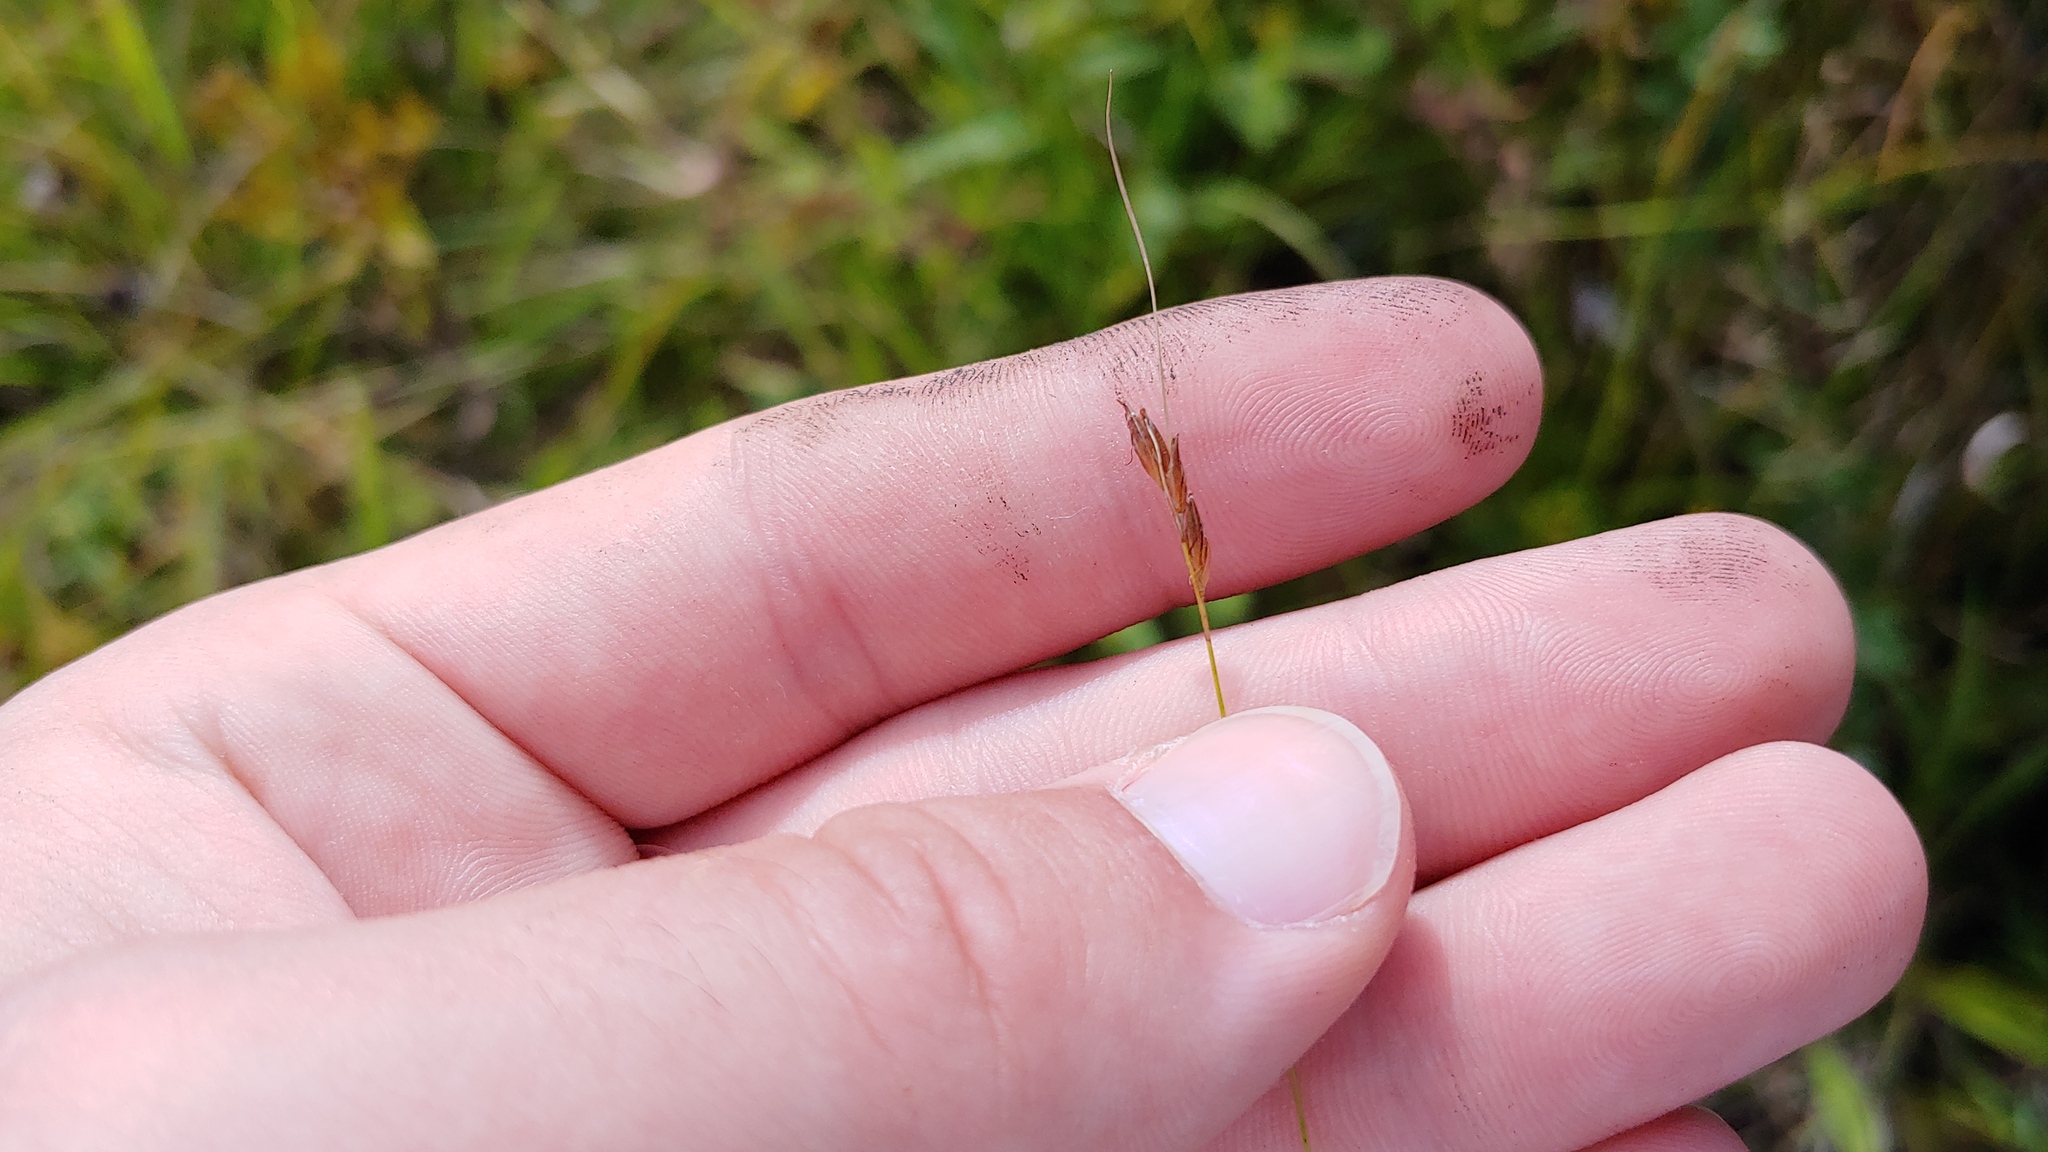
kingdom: Plantae
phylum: Tracheophyta
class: Liliopsida
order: Poales
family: Cyperaceae
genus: Rhynchospora
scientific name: Rhynchospora capillacea
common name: Capillary beakrush
